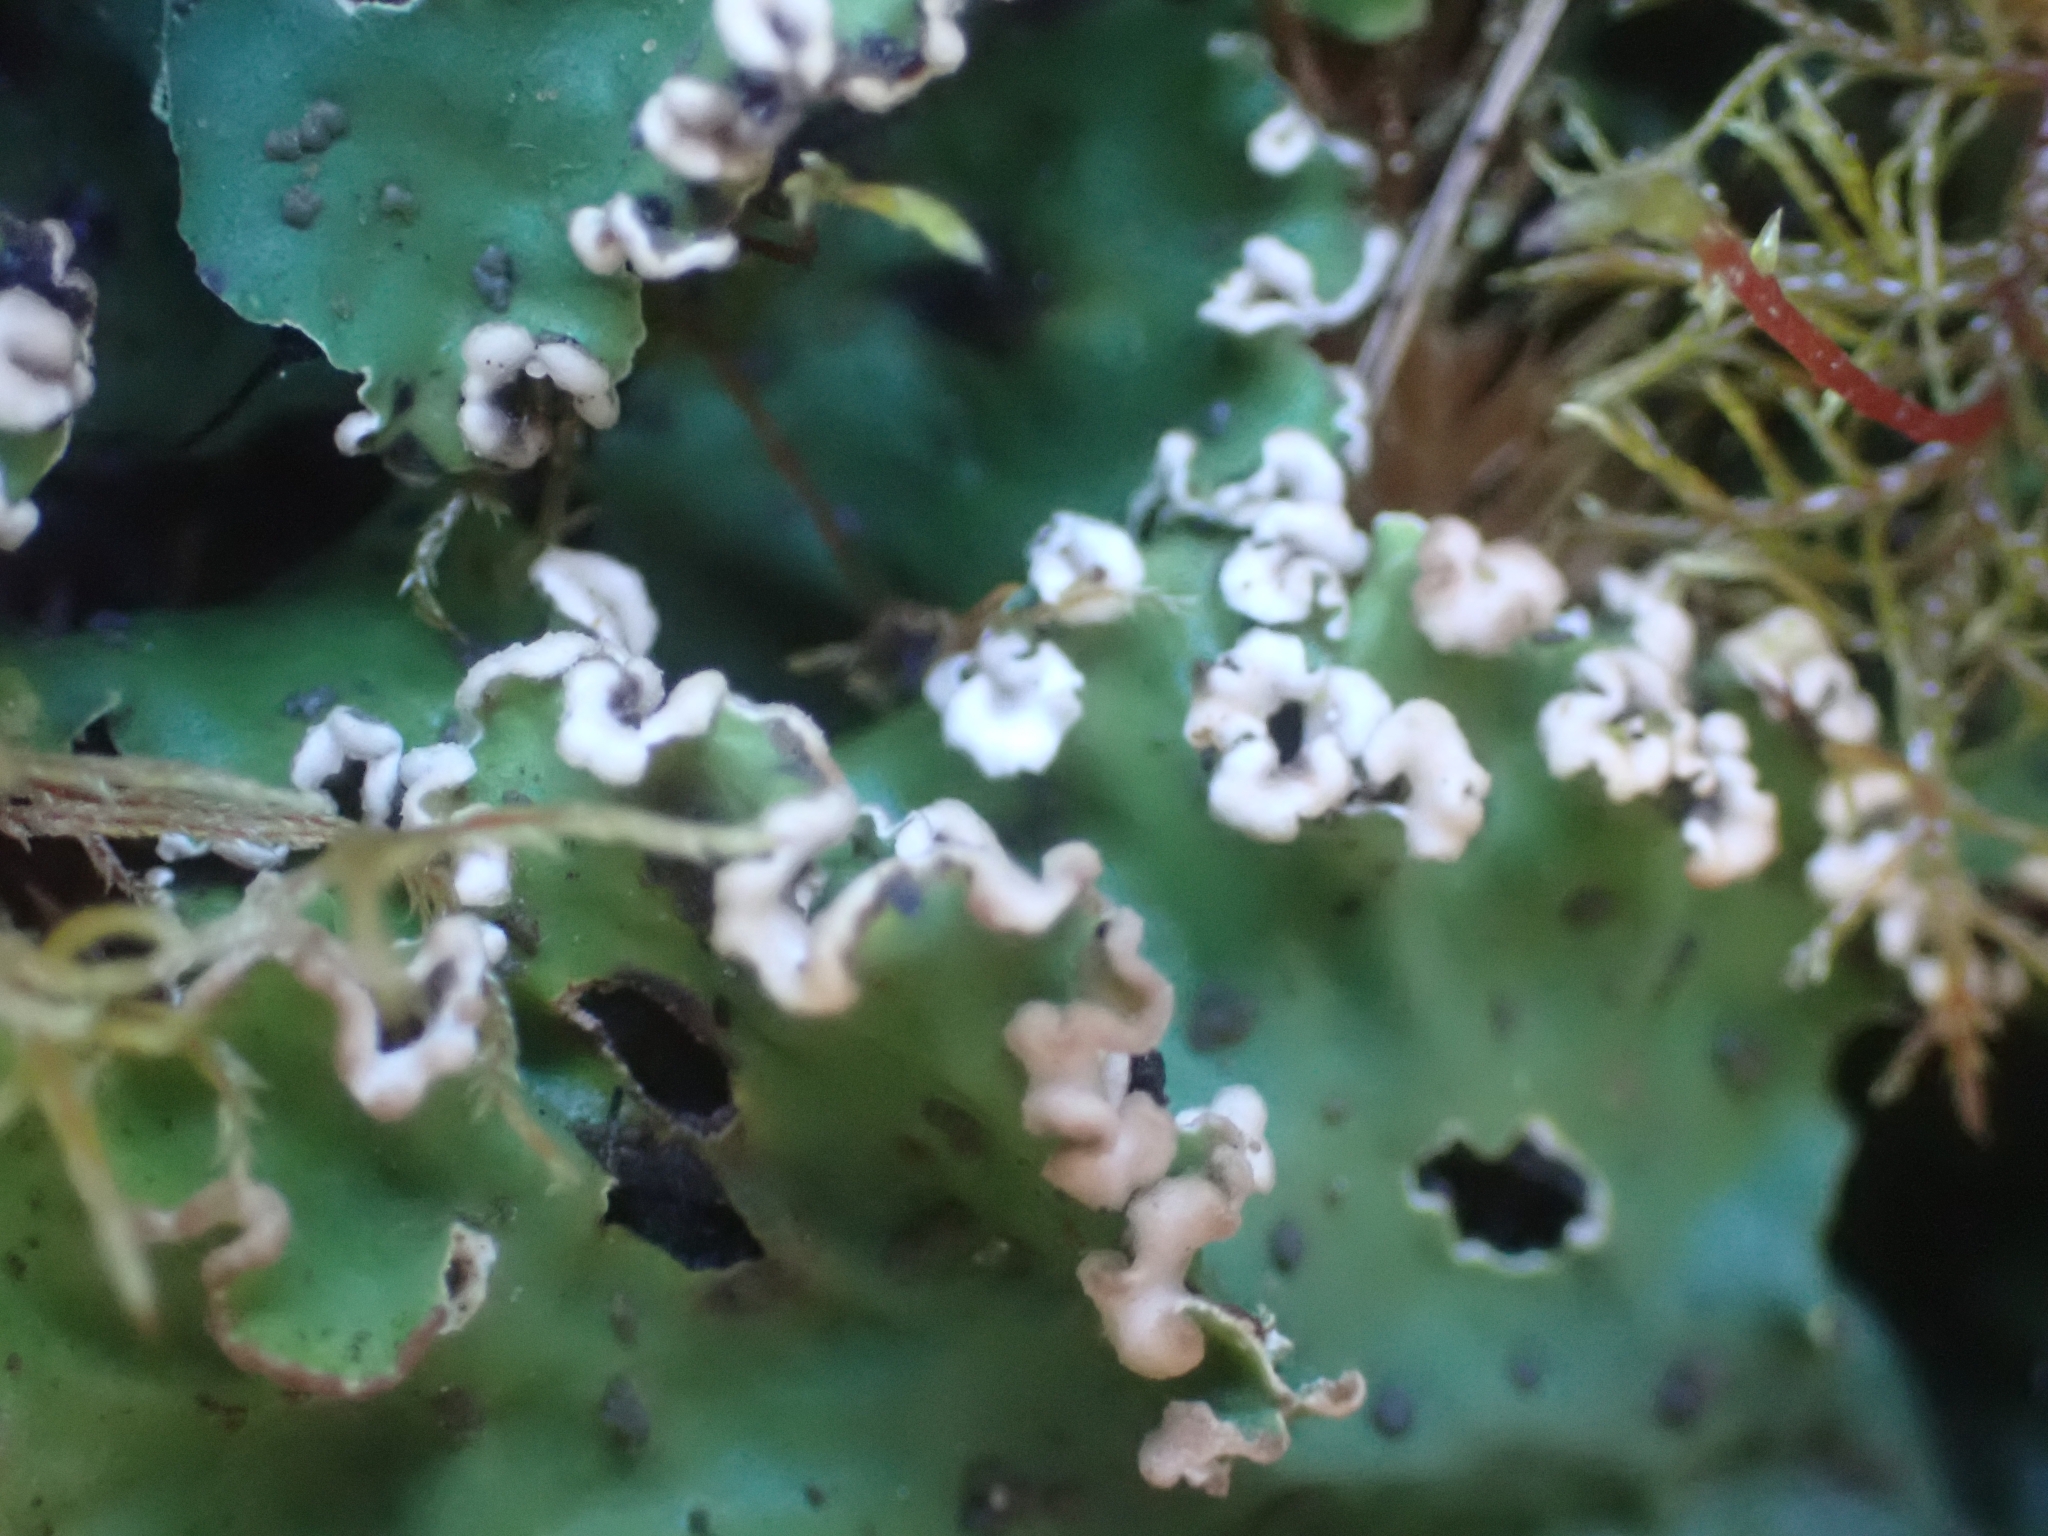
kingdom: Fungi
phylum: Ascomycota
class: Lecanoromycetes
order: Peltigerales
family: Peltigeraceae
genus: Peltigera
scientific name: Peltigera leucophlebia
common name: Ruffled freckle pelt lichen
